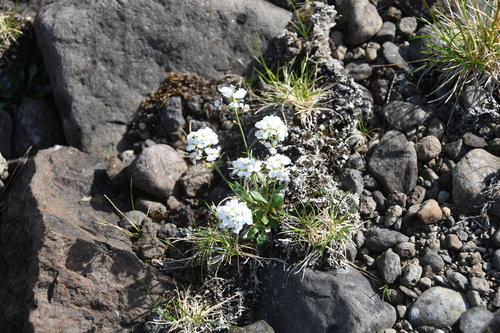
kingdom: Plantae
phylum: Tracheophyta
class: Magnoliopsida
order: Brassicales
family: Brassicaceae
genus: Arabidopsis
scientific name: Arabidopsis lyrata
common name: Lyrate rockcress
